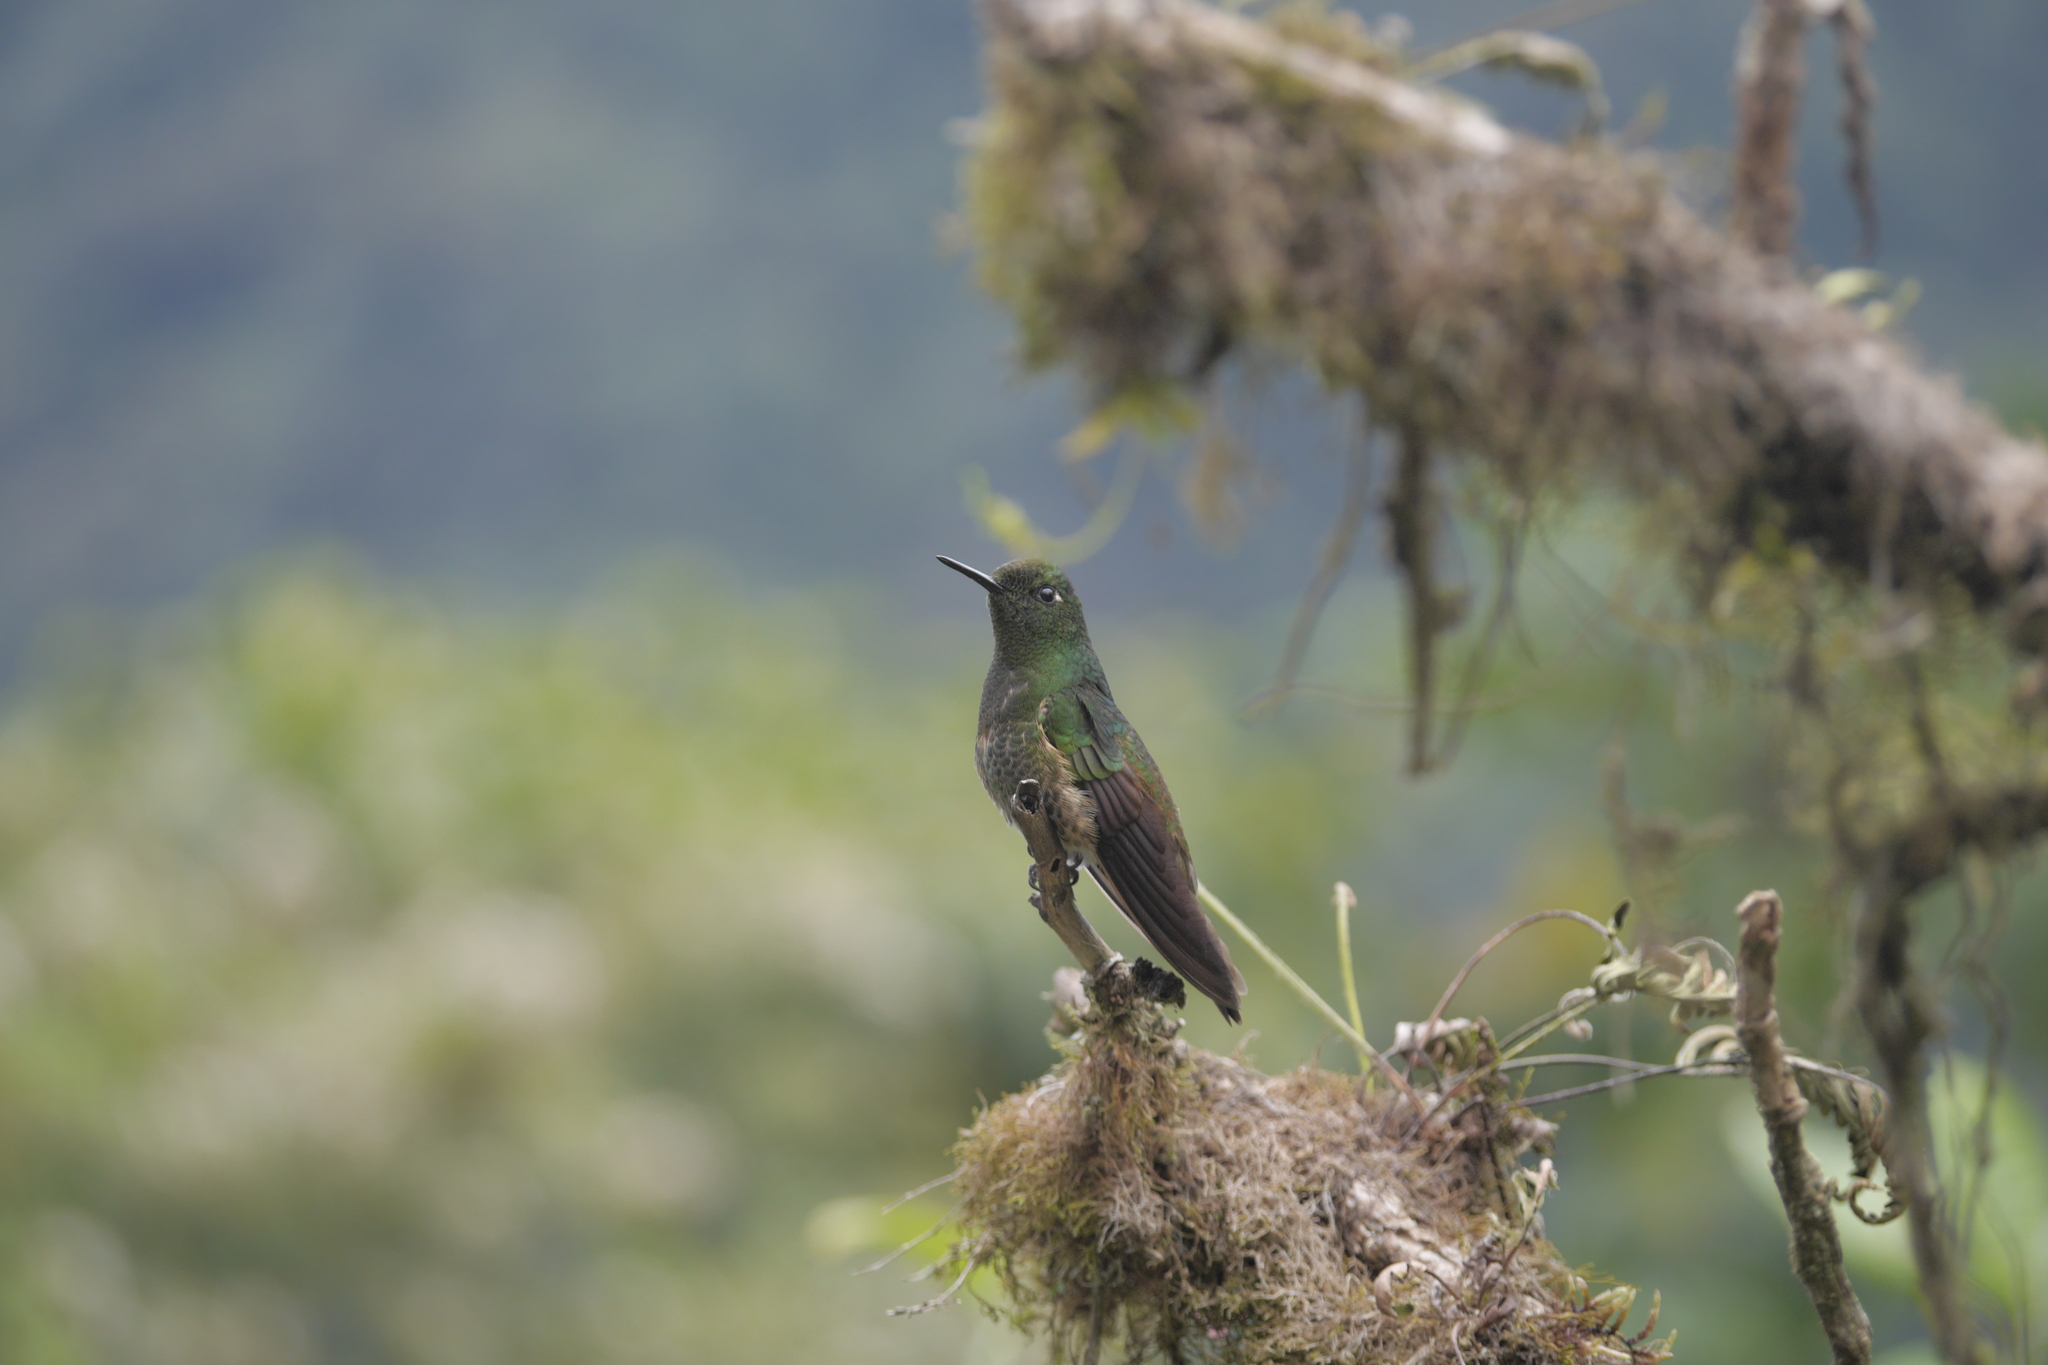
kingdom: Animalia
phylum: Chordata
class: Aves
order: Apodiformes
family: Trochilidae
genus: Boissonneaua
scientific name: Boissonneaua flavescens
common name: Buff-tailed coronet
